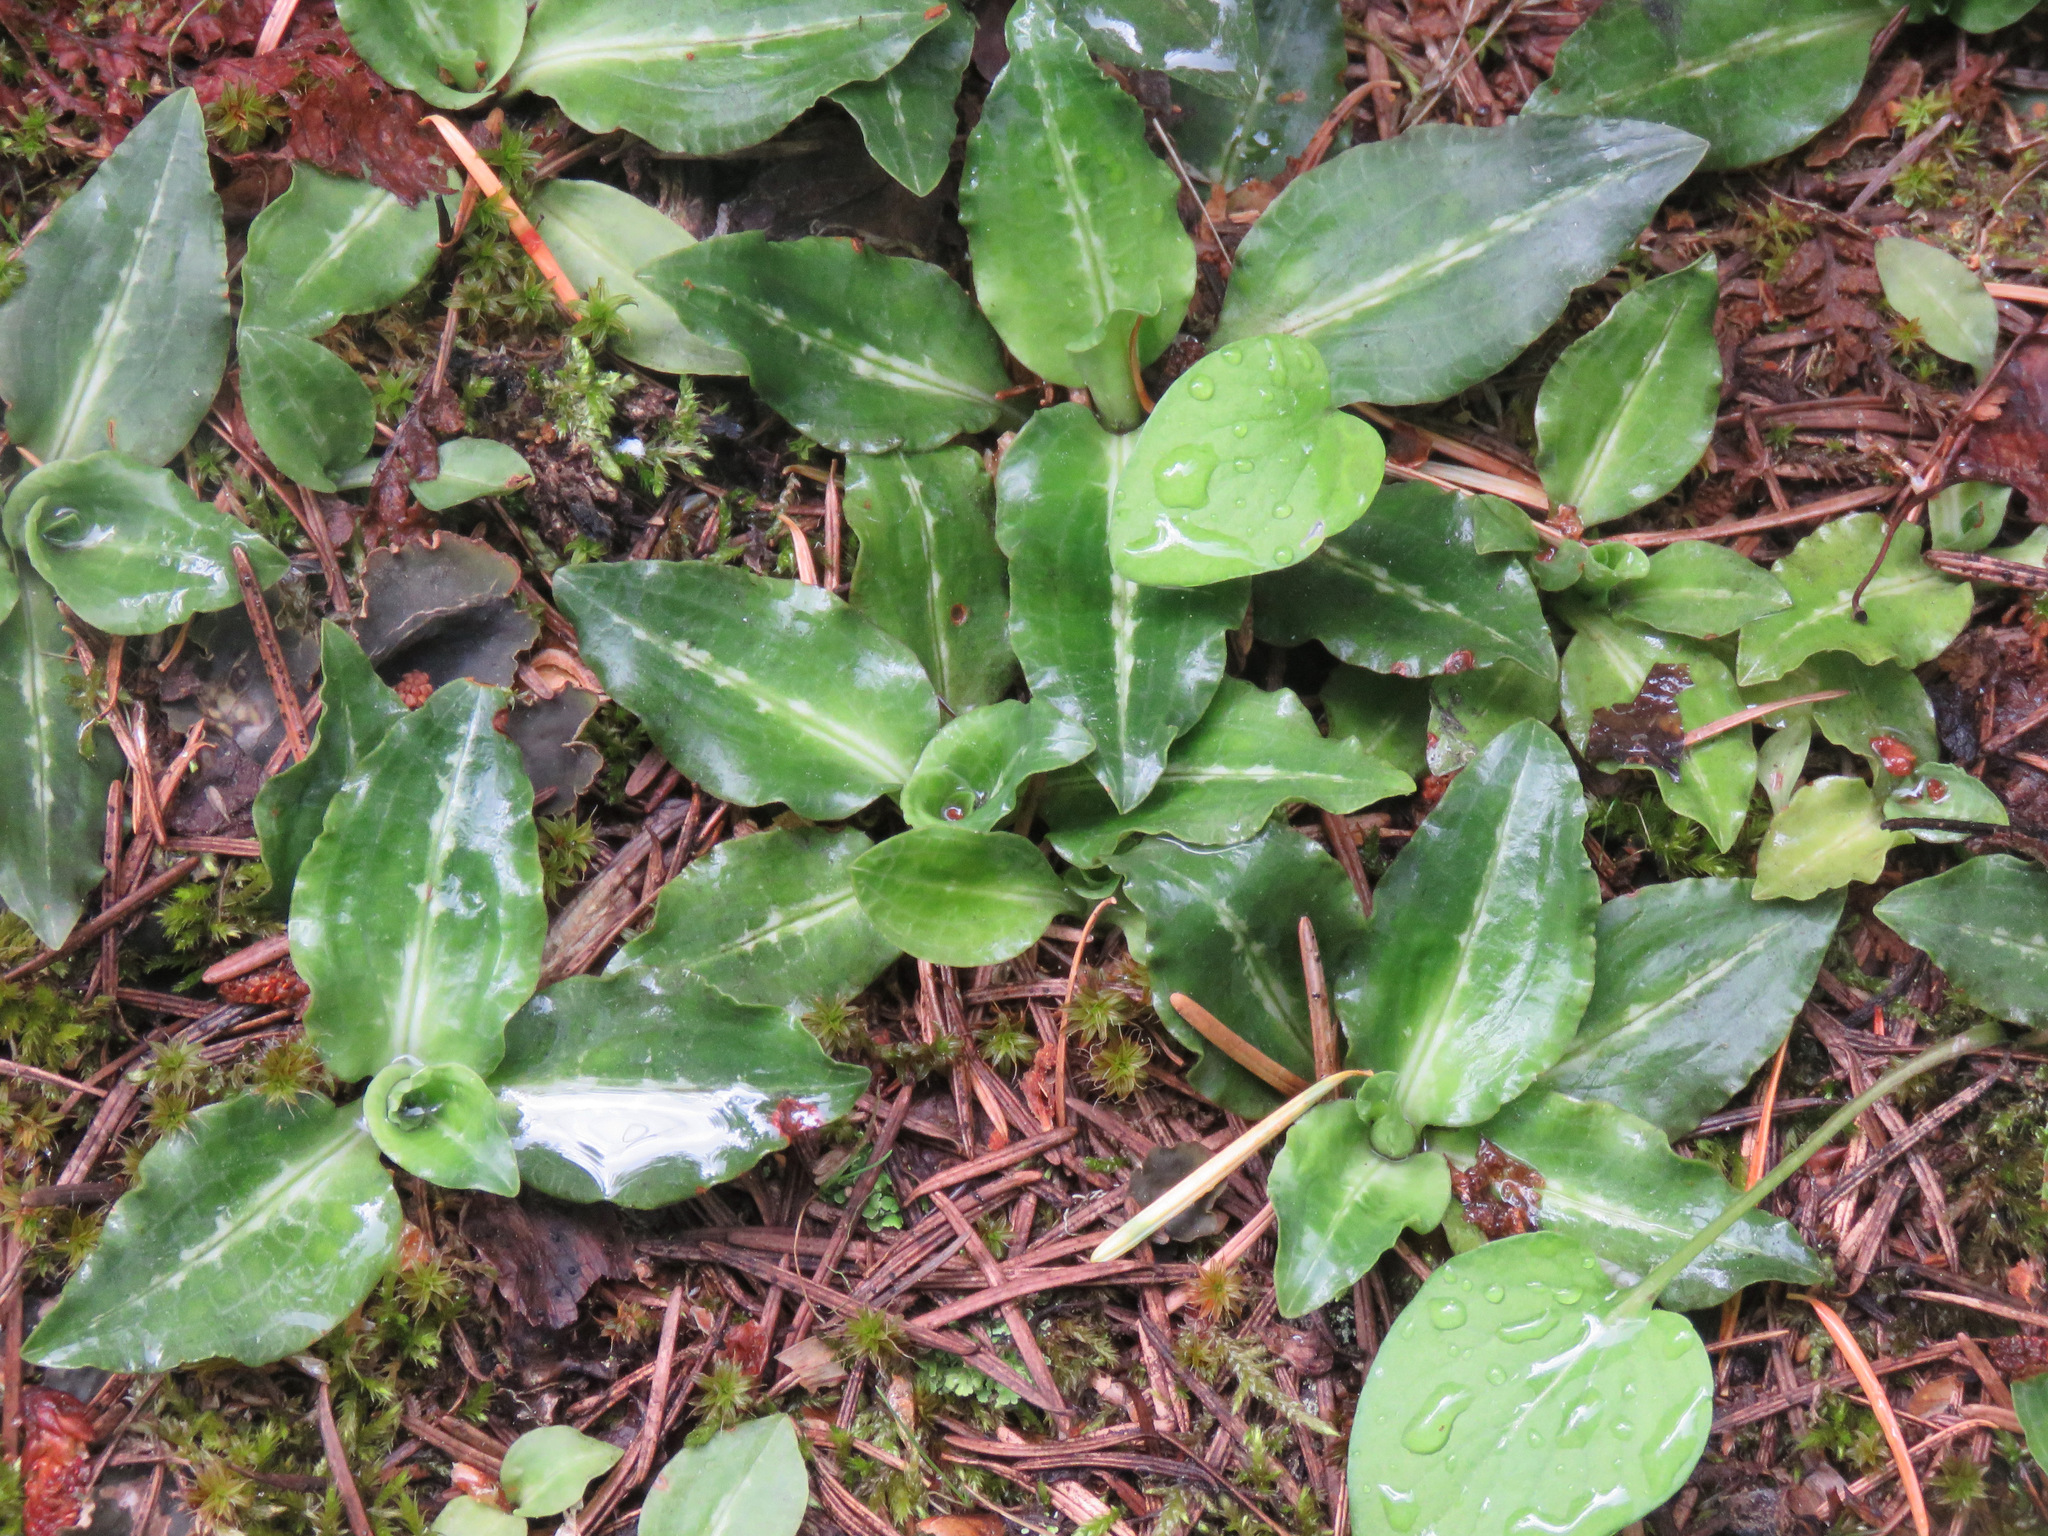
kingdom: Plantae
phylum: Tracheophyta
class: Liliopsida
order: Asparagales
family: Orchidaceae
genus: Goodyera
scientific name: Goodyera oblongifolia
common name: Giant rattlesnake-plantain
